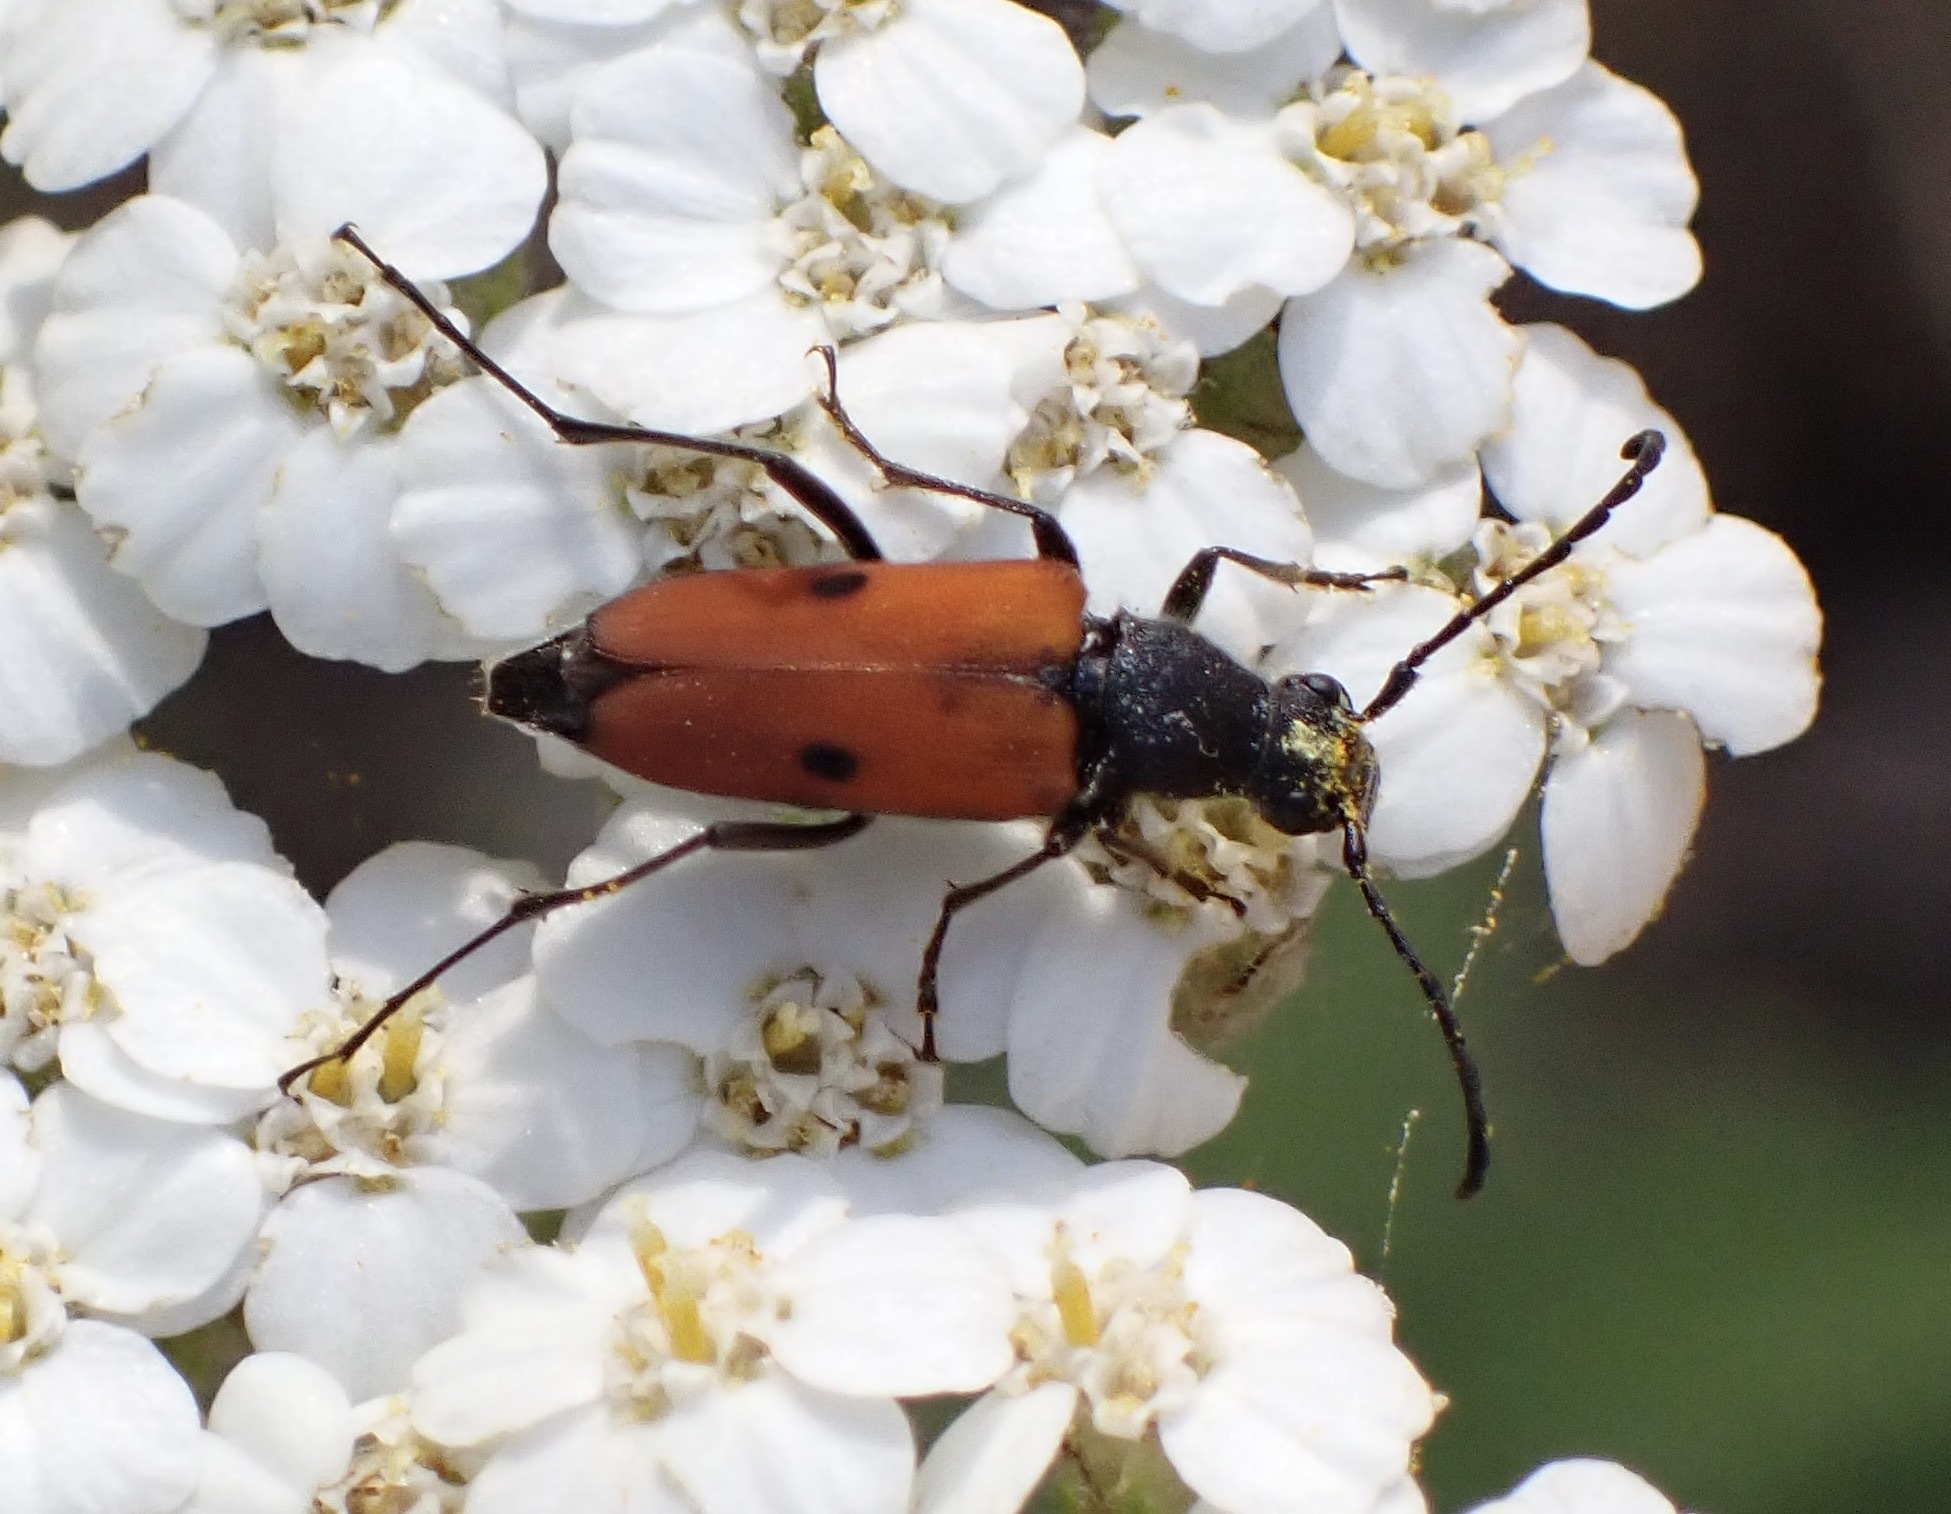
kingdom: Animalia
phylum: Arthropoda
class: Insecta
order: Coleoptera
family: Cerambycidae
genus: Anastrangalia
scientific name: Anastrangalia laetifica
